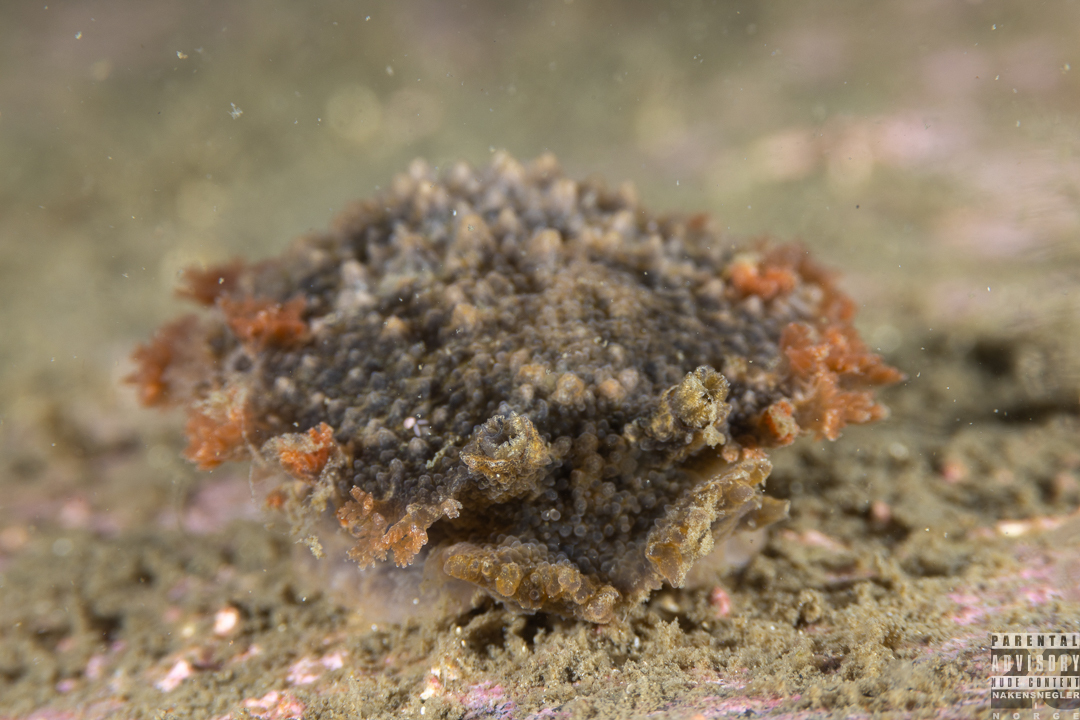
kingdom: Animalia
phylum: Mollusca
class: Gastropoda
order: Nudibranchia
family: Tritoniidae
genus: Tritonia
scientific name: Tritonia hombergii
